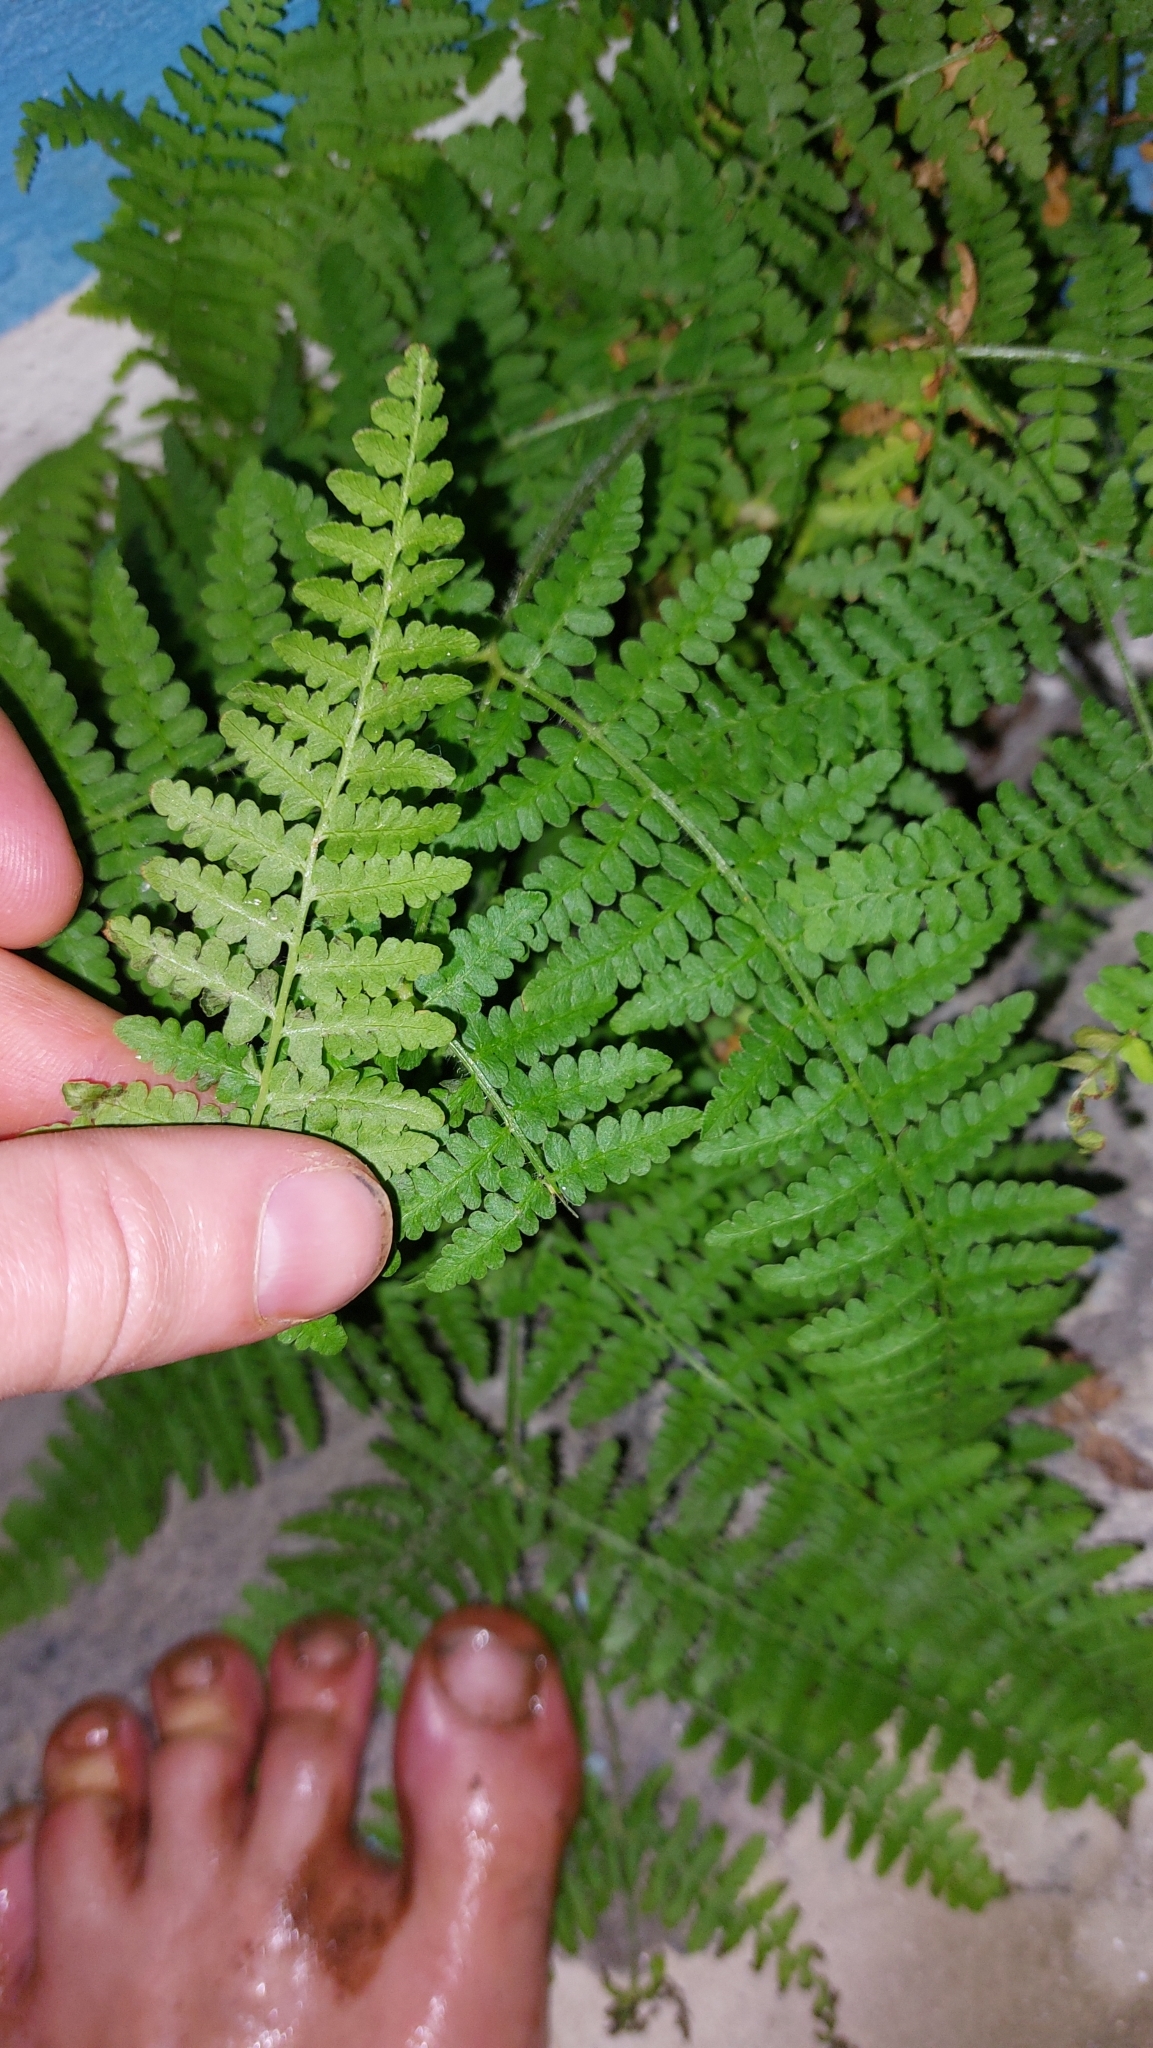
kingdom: Plantae
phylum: Tracheophyta
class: Polypodiopsida
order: Polypodiales
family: Dennstaedtiaceae
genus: Pteridium
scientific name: Pteridium aquilinum
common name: Bracken
